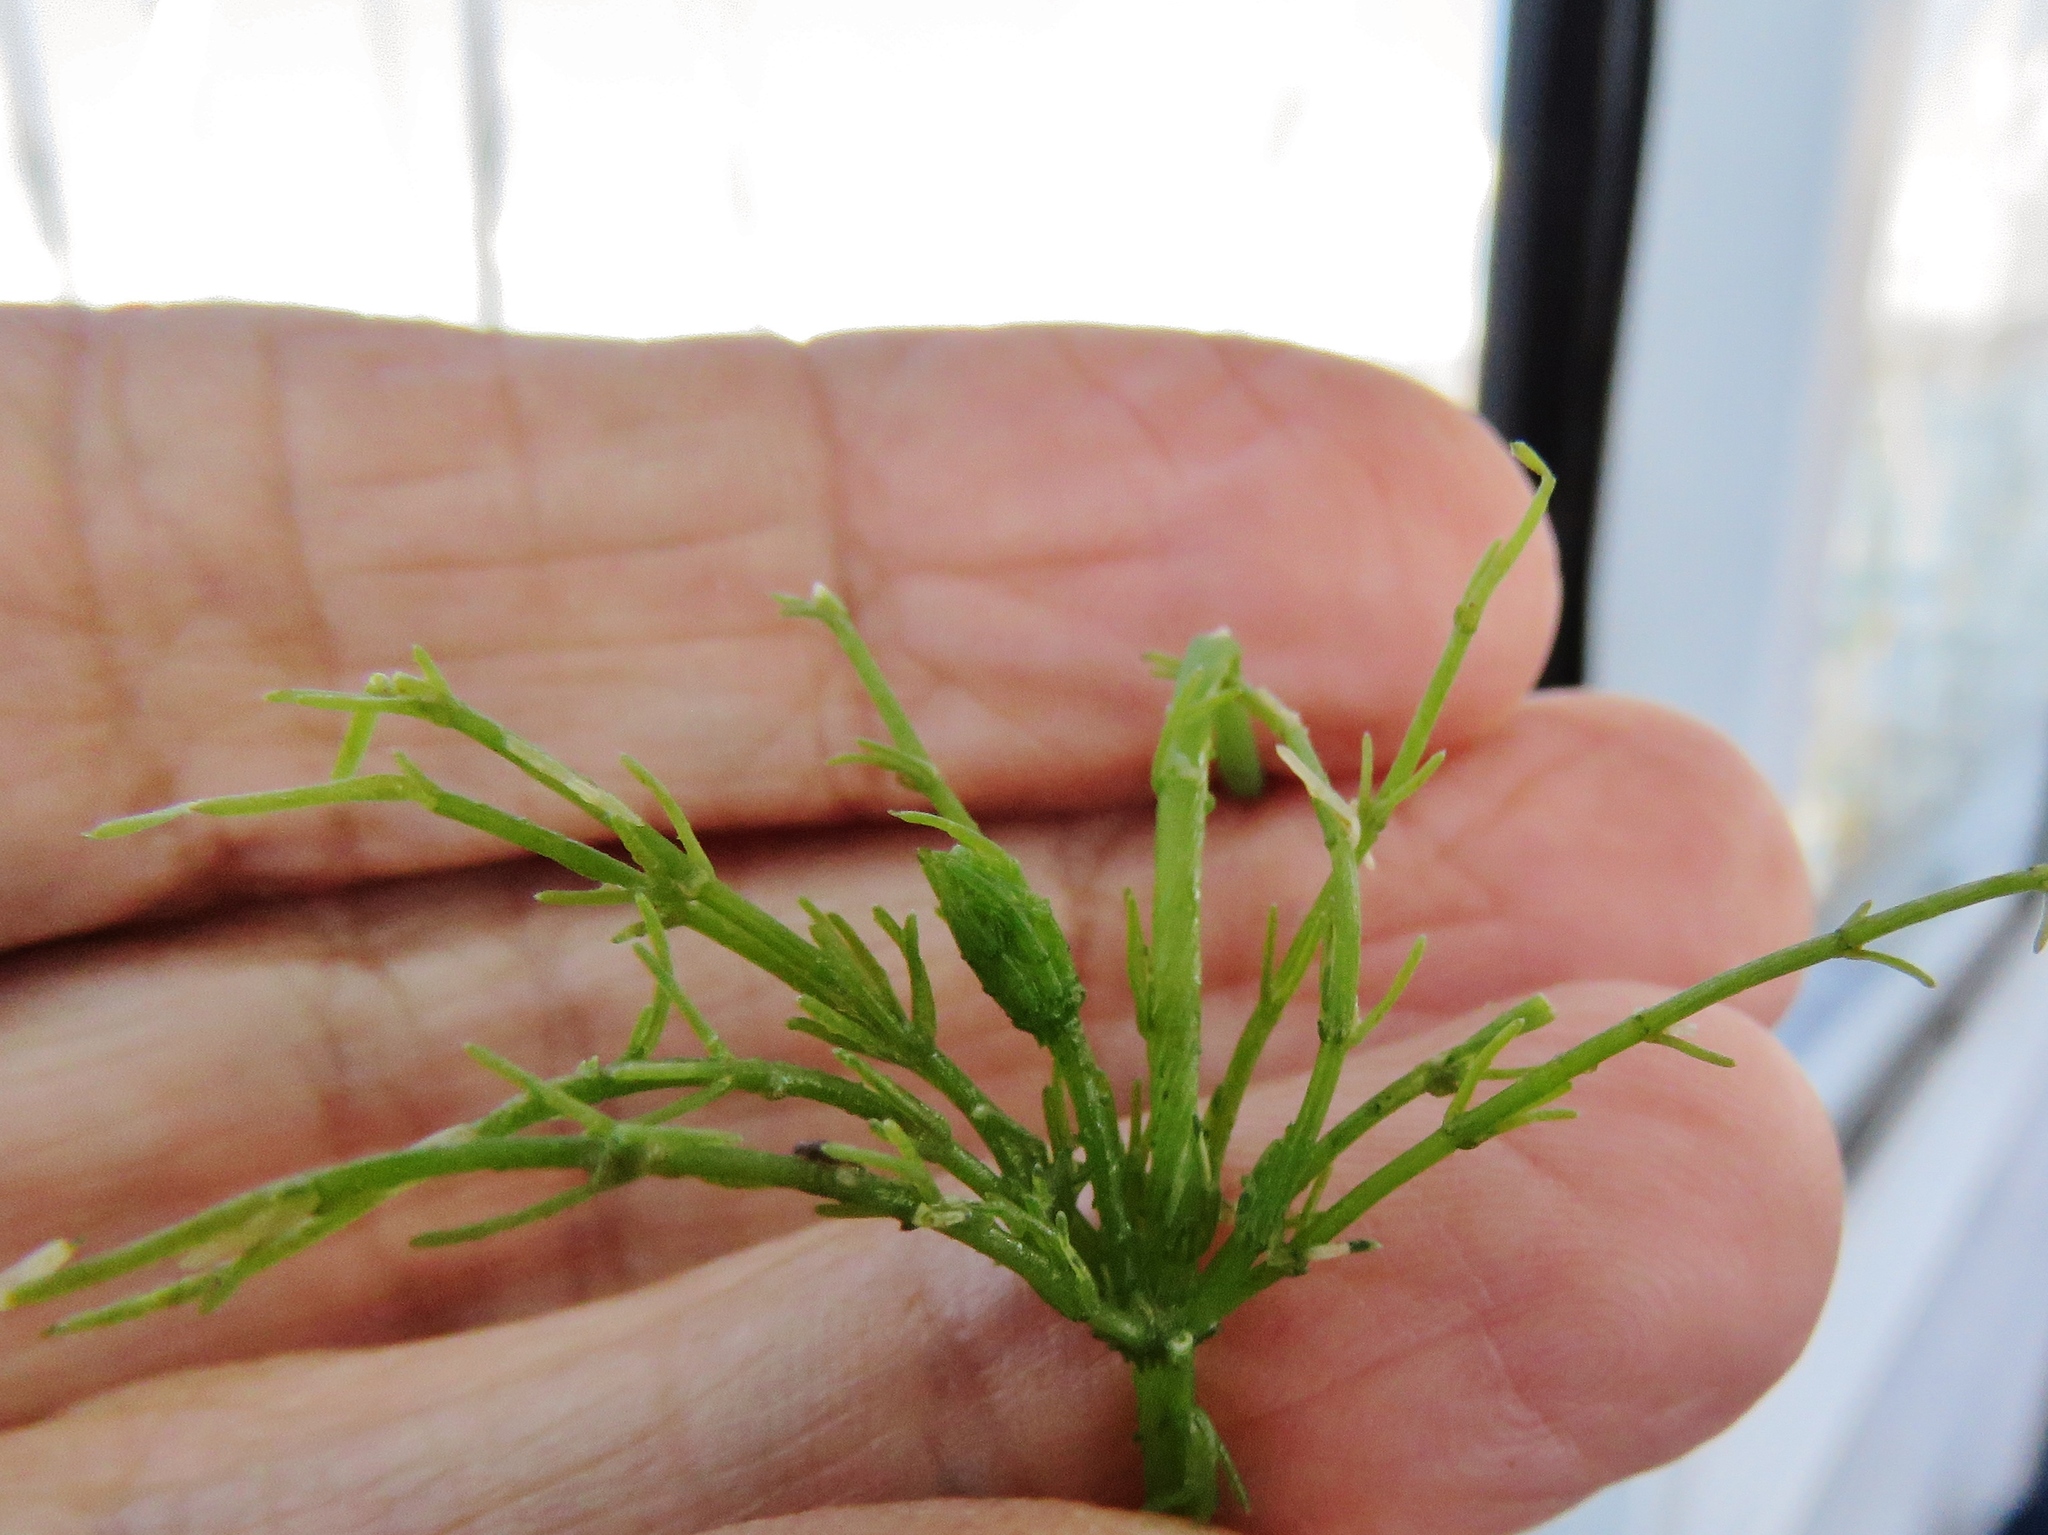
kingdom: Plantae
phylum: Charophyta
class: Charophyceae
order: Charales
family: Characeae
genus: Chara
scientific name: Chara baltica
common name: Baltic stonewort
